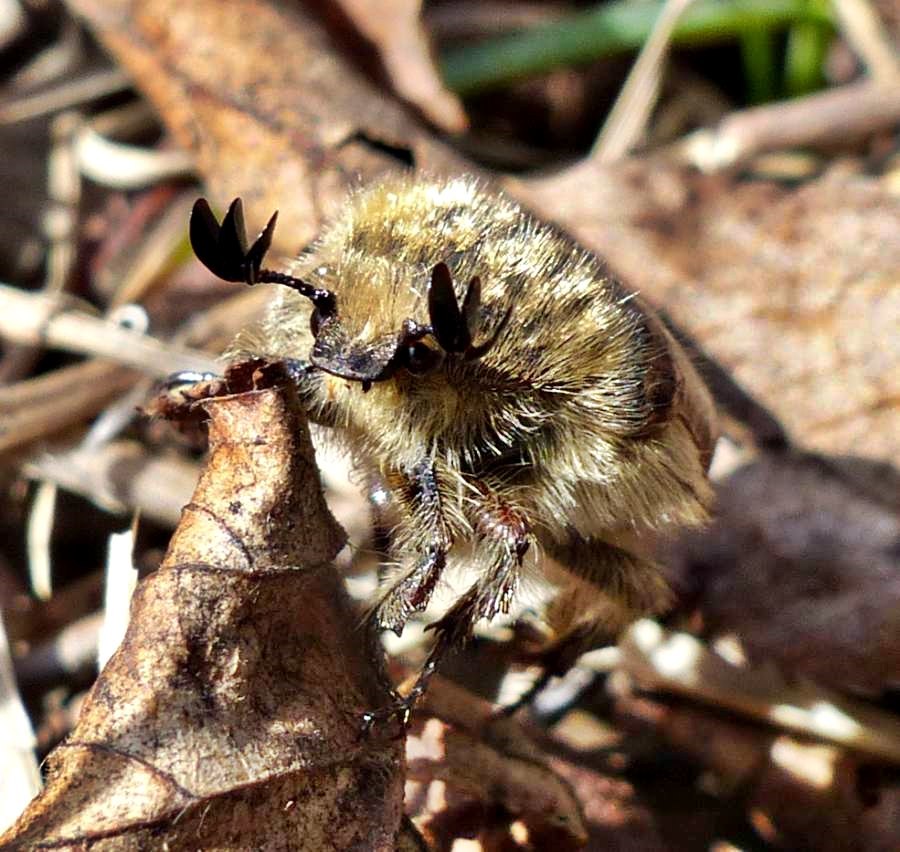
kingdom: Animalia
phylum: Arthropoda
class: Insecta
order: Coleoptera
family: Scarabaeidae
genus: Euphoria
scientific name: Euphoria inda
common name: Bumble flower beetle
